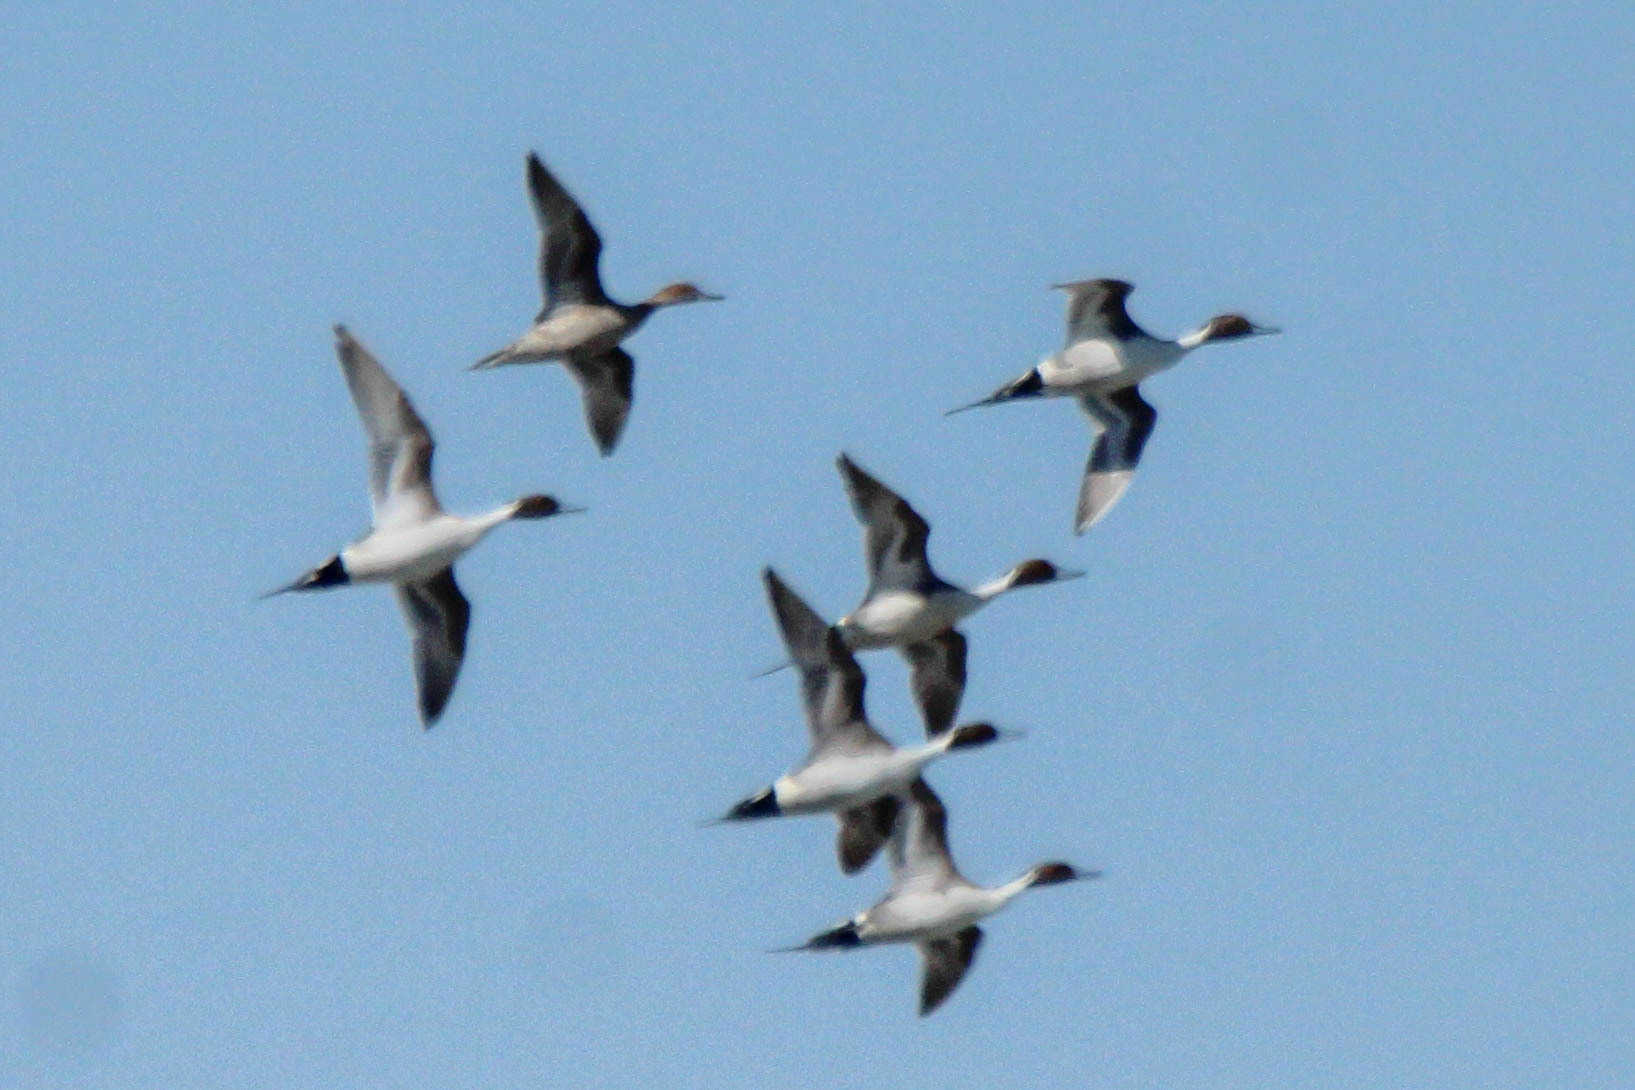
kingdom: Animalia
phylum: Chordata
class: Aves
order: Anseriformes
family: Anatidae
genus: Anas
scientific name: Anas acuta
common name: Northern pintail
